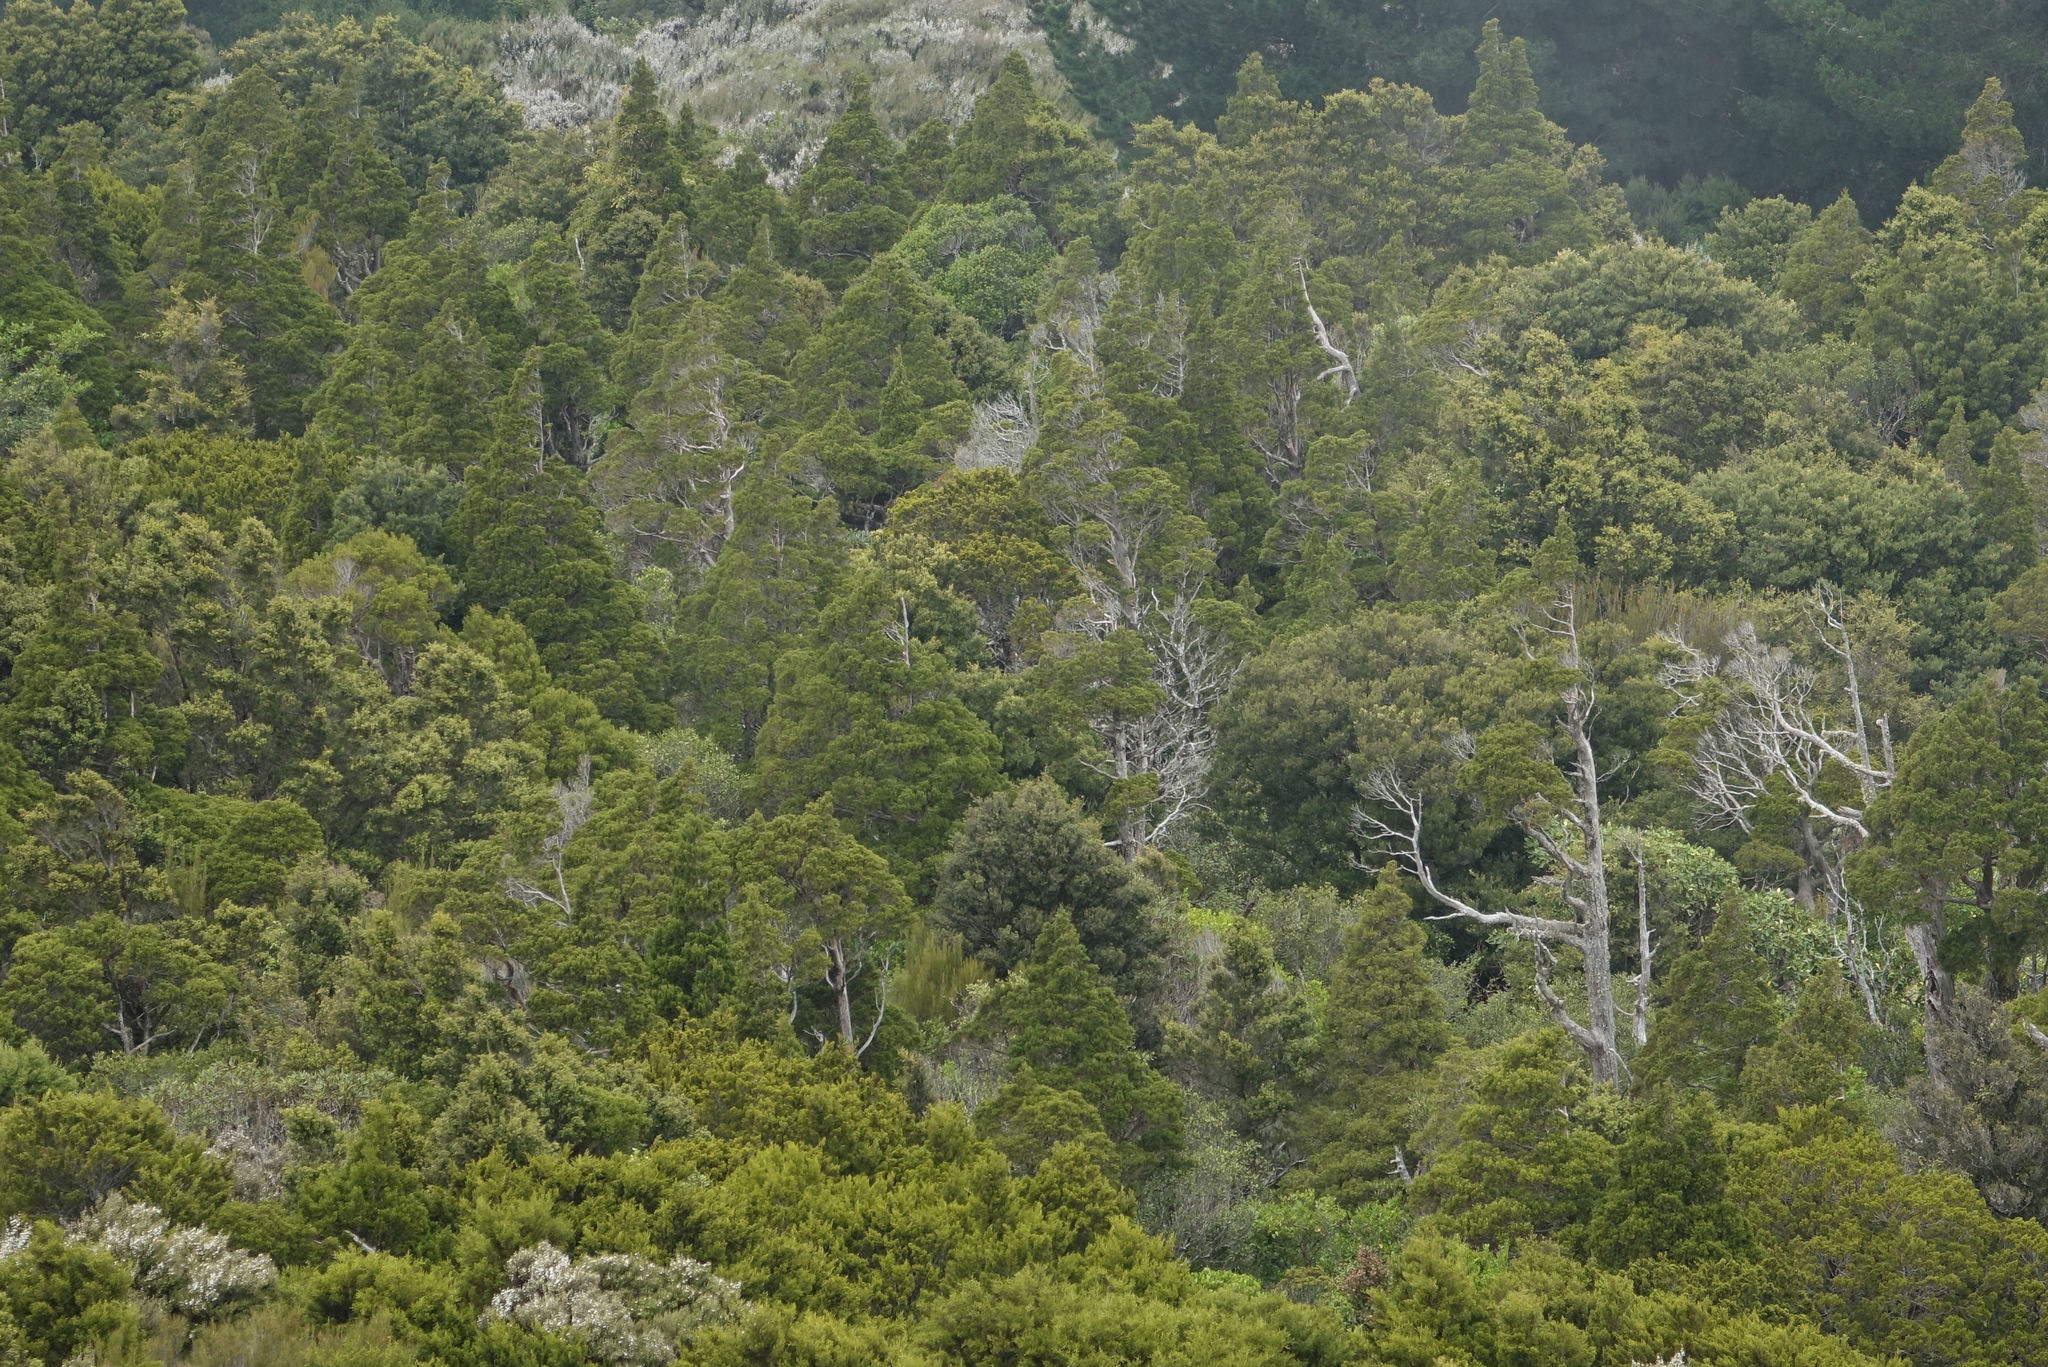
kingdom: Plantae
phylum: Tracheophyta
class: Pinopsida
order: Pinales
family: Cupressaceae
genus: Libocedrus
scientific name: Libocedrus bidwillii
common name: Cedar
